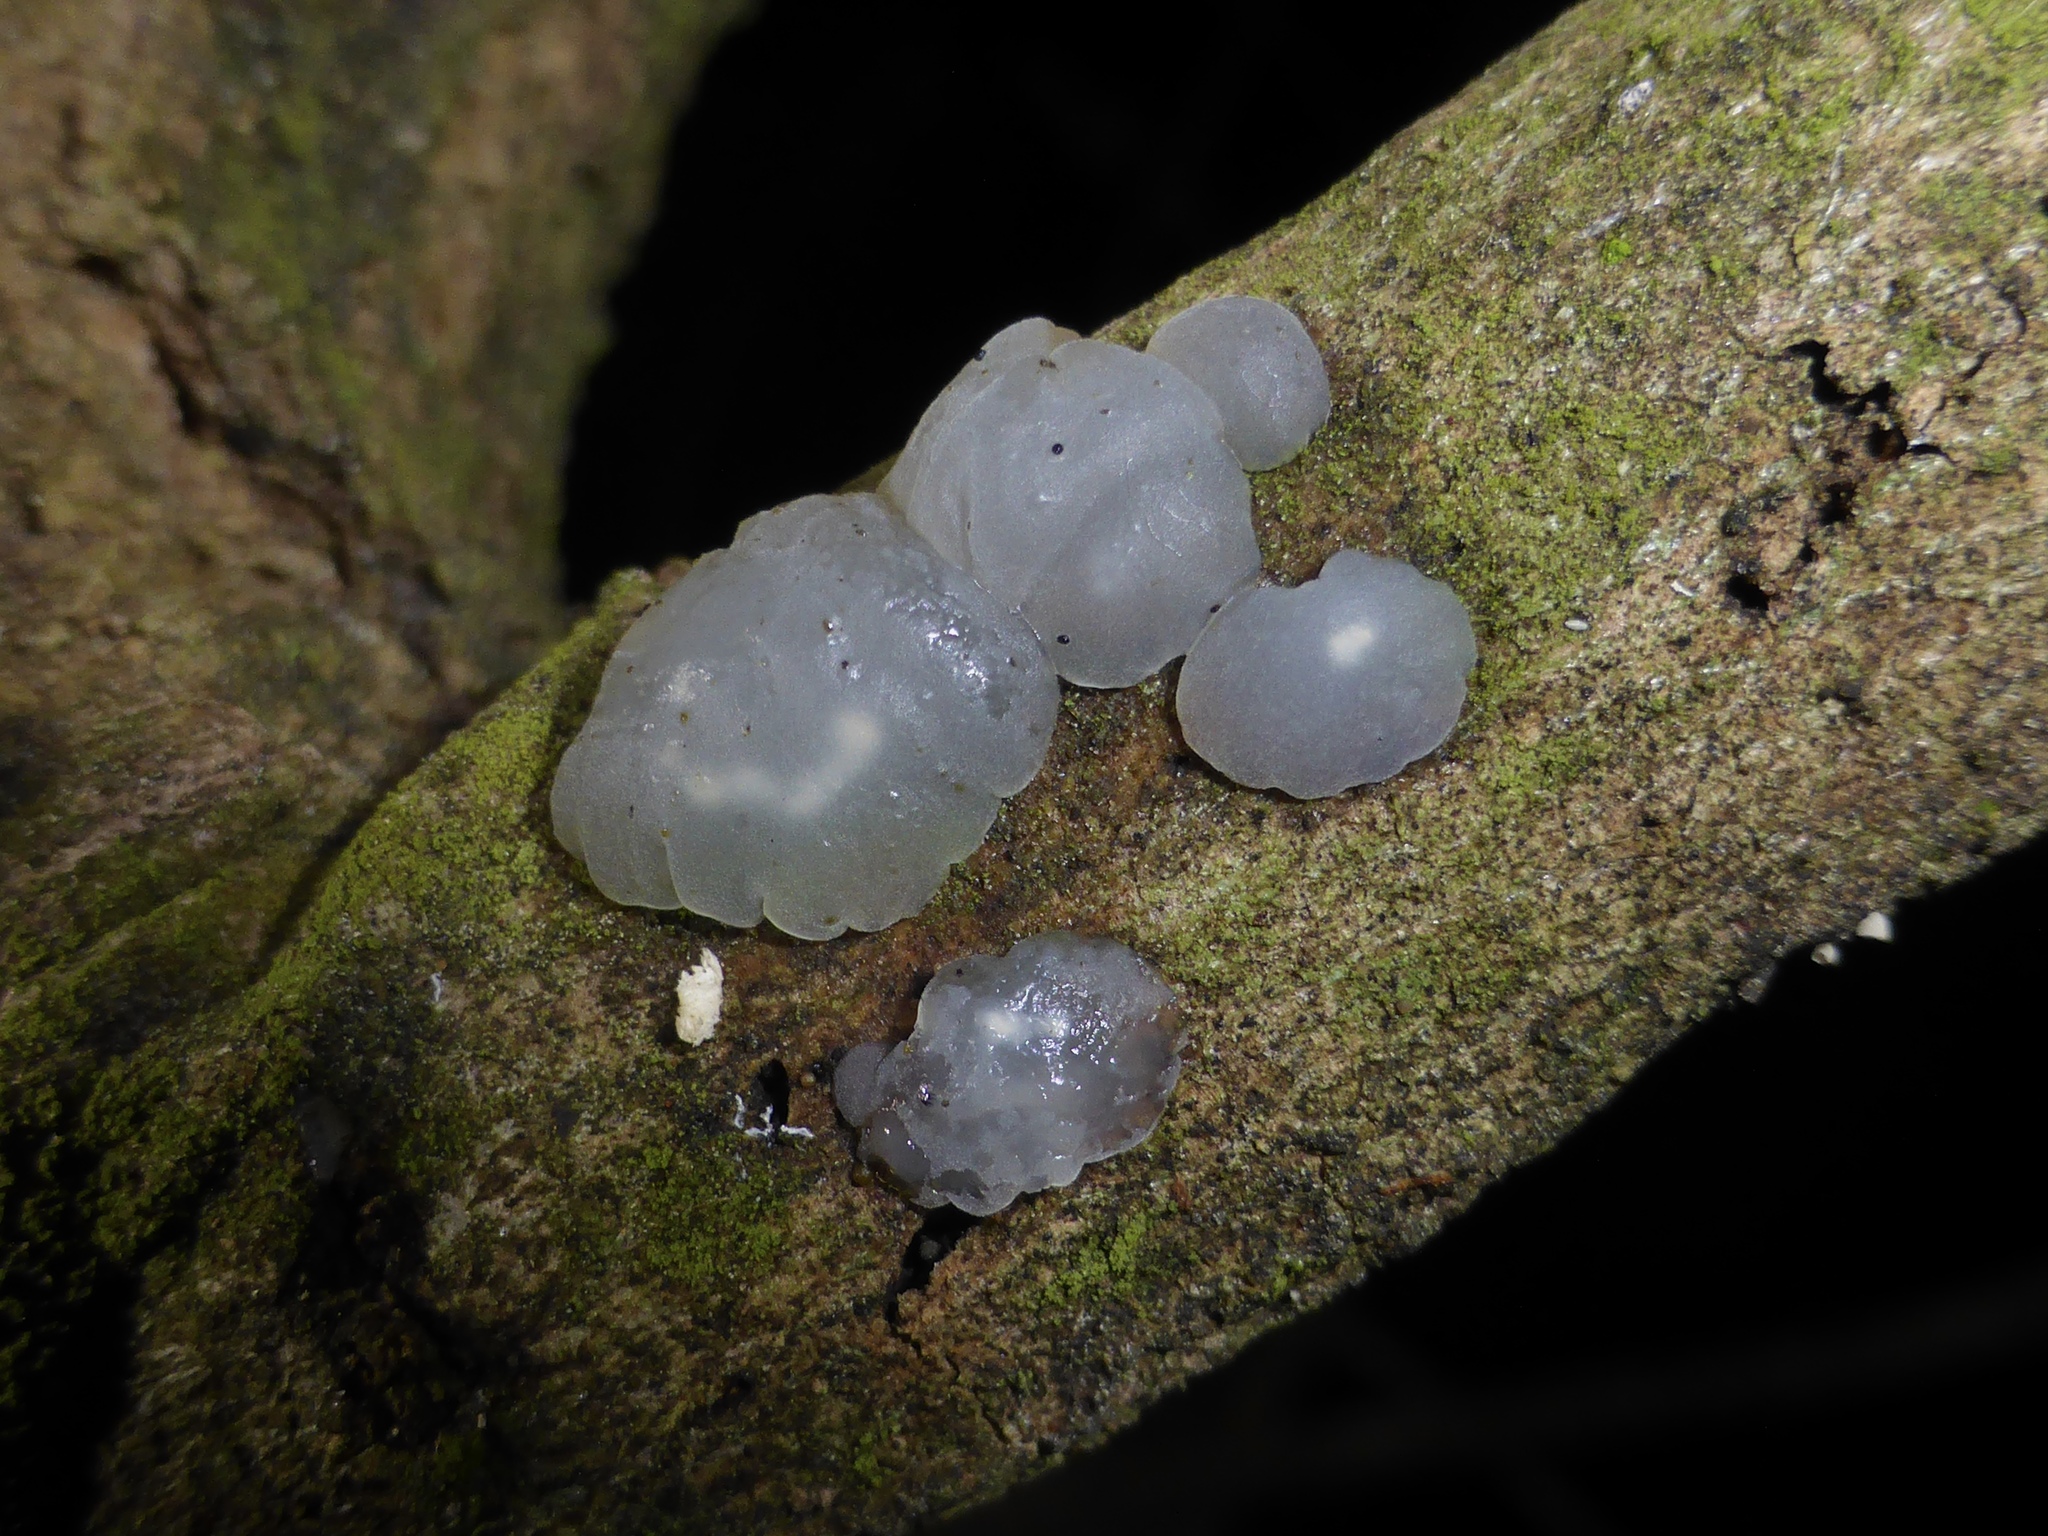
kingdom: Fungi
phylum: Basidiomycota
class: Agaricomycetes
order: Auriculariales
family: Hyaloriaceae
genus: Myxarium
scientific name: Myxarium nucleatum
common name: Crystal brain fungus
